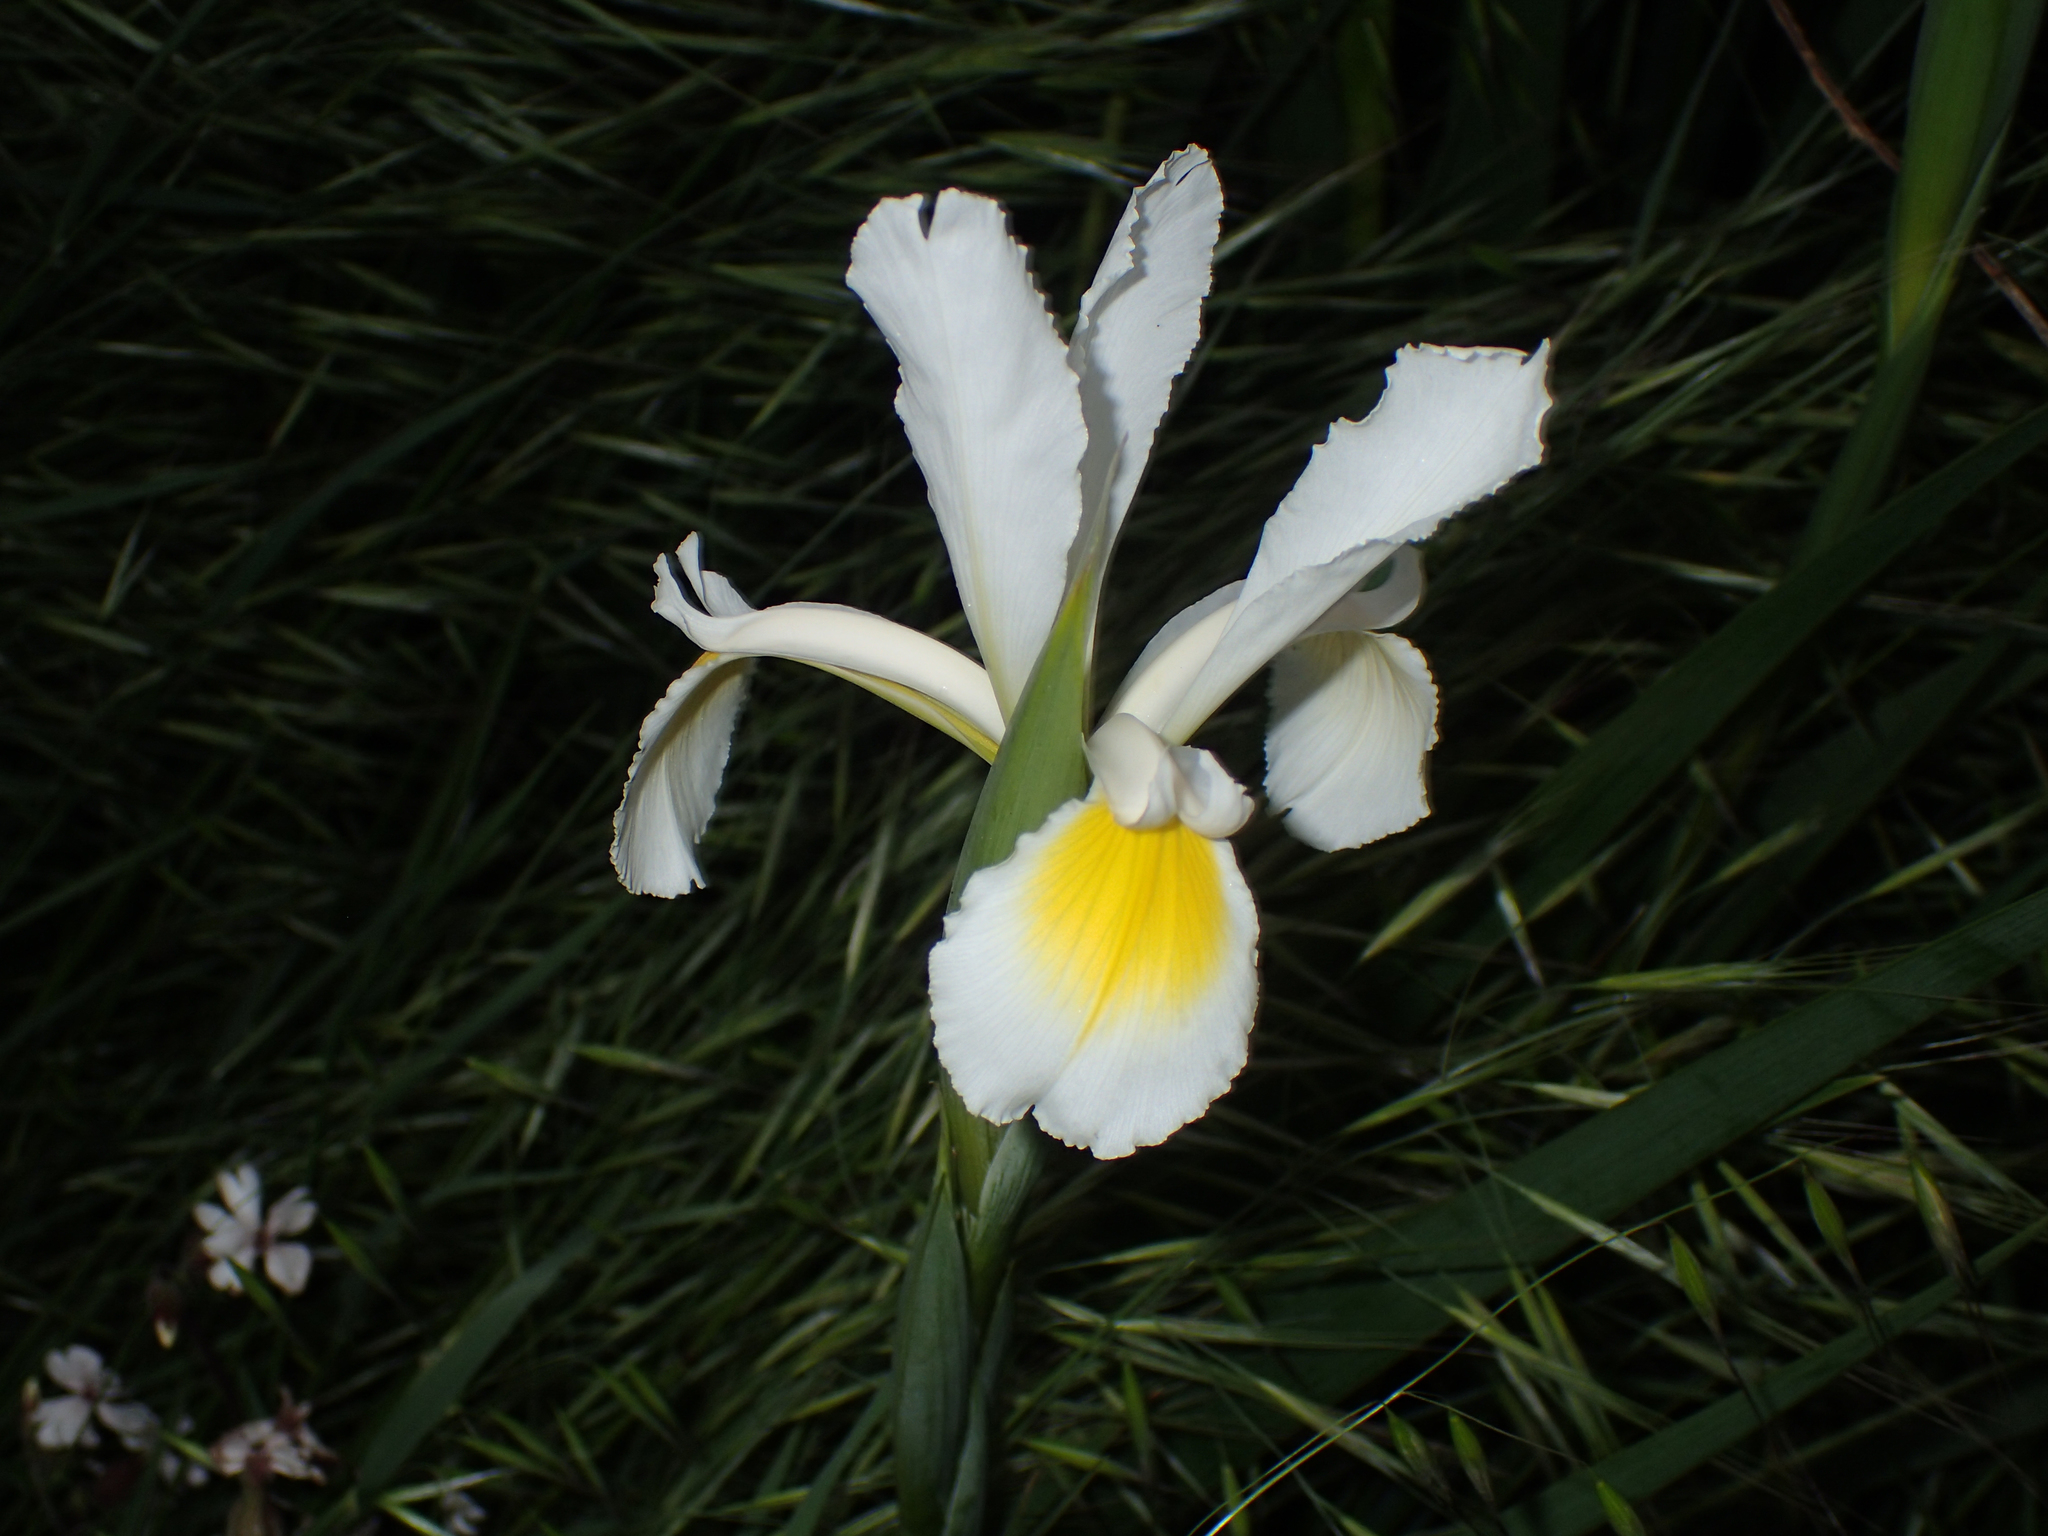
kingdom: Plantae
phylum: Tracheophyta
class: Liliopsida
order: Asparagales
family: Iridaceae
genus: Iris
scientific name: Iris orientalis
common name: Turkish iris
